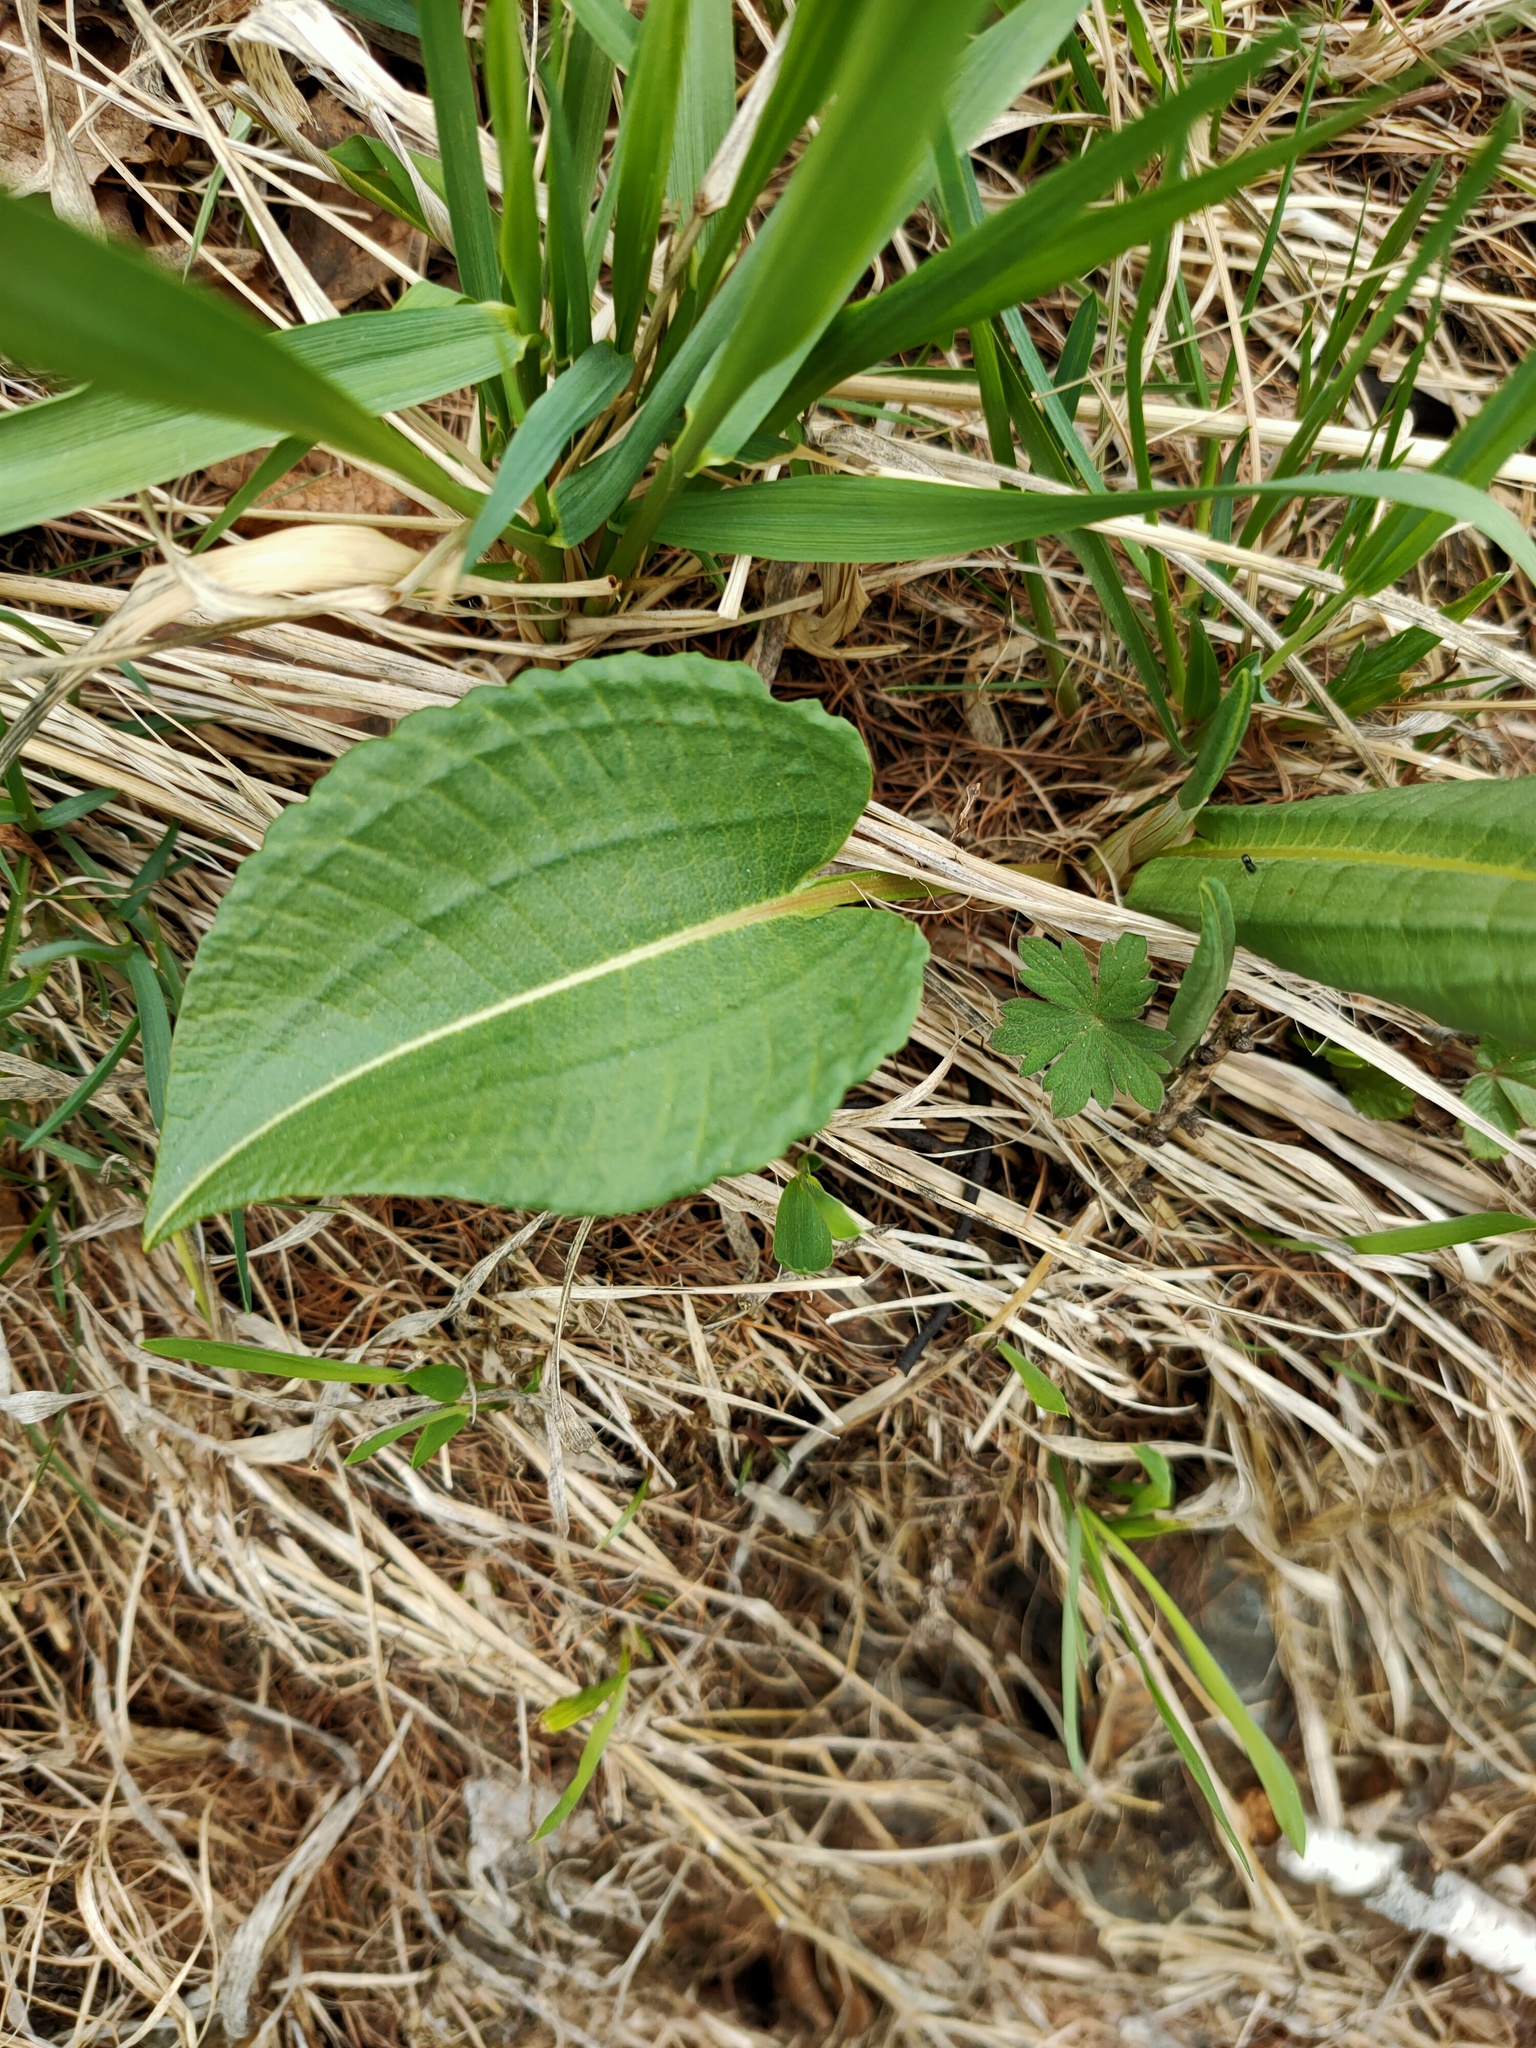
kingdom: Plantae
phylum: Tracheophyta
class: Magnoliopsida
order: Caryophyllales
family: Polygonaceae
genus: Bistorta
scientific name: Bistorta officinalis
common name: Common bistort
